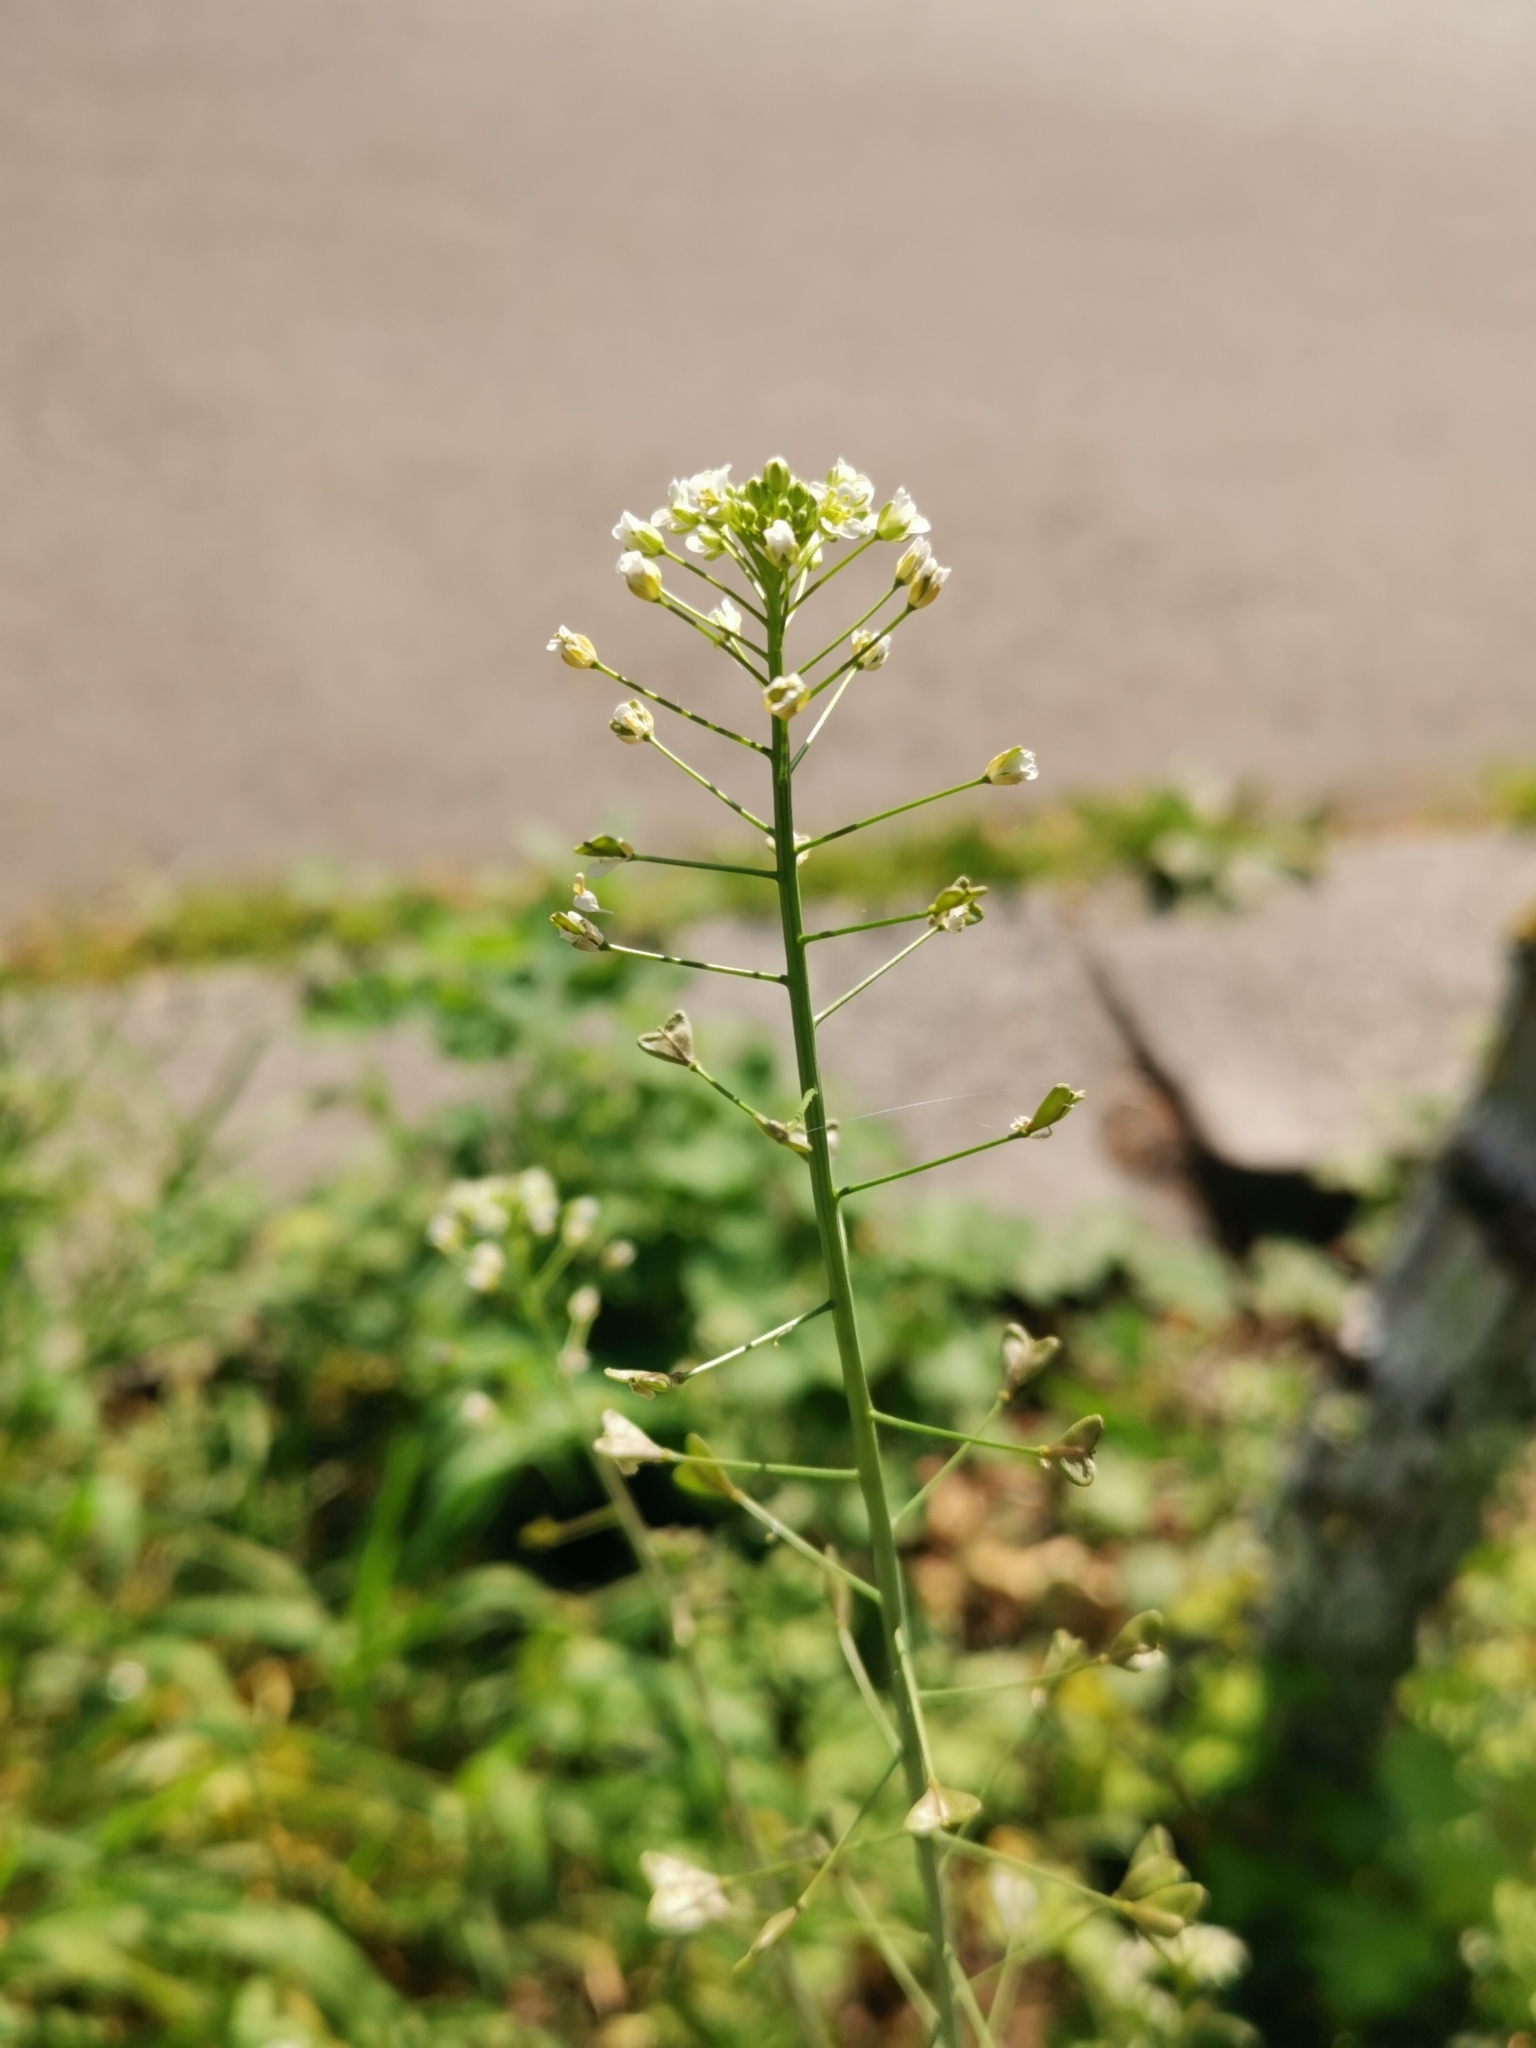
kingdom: Plantae
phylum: Tracheophyta
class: Magnoliopsida
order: Brassicales
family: Brassicaceae
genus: Capsella
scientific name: Capsella bursa-pastoris
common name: Shepherd's purse
